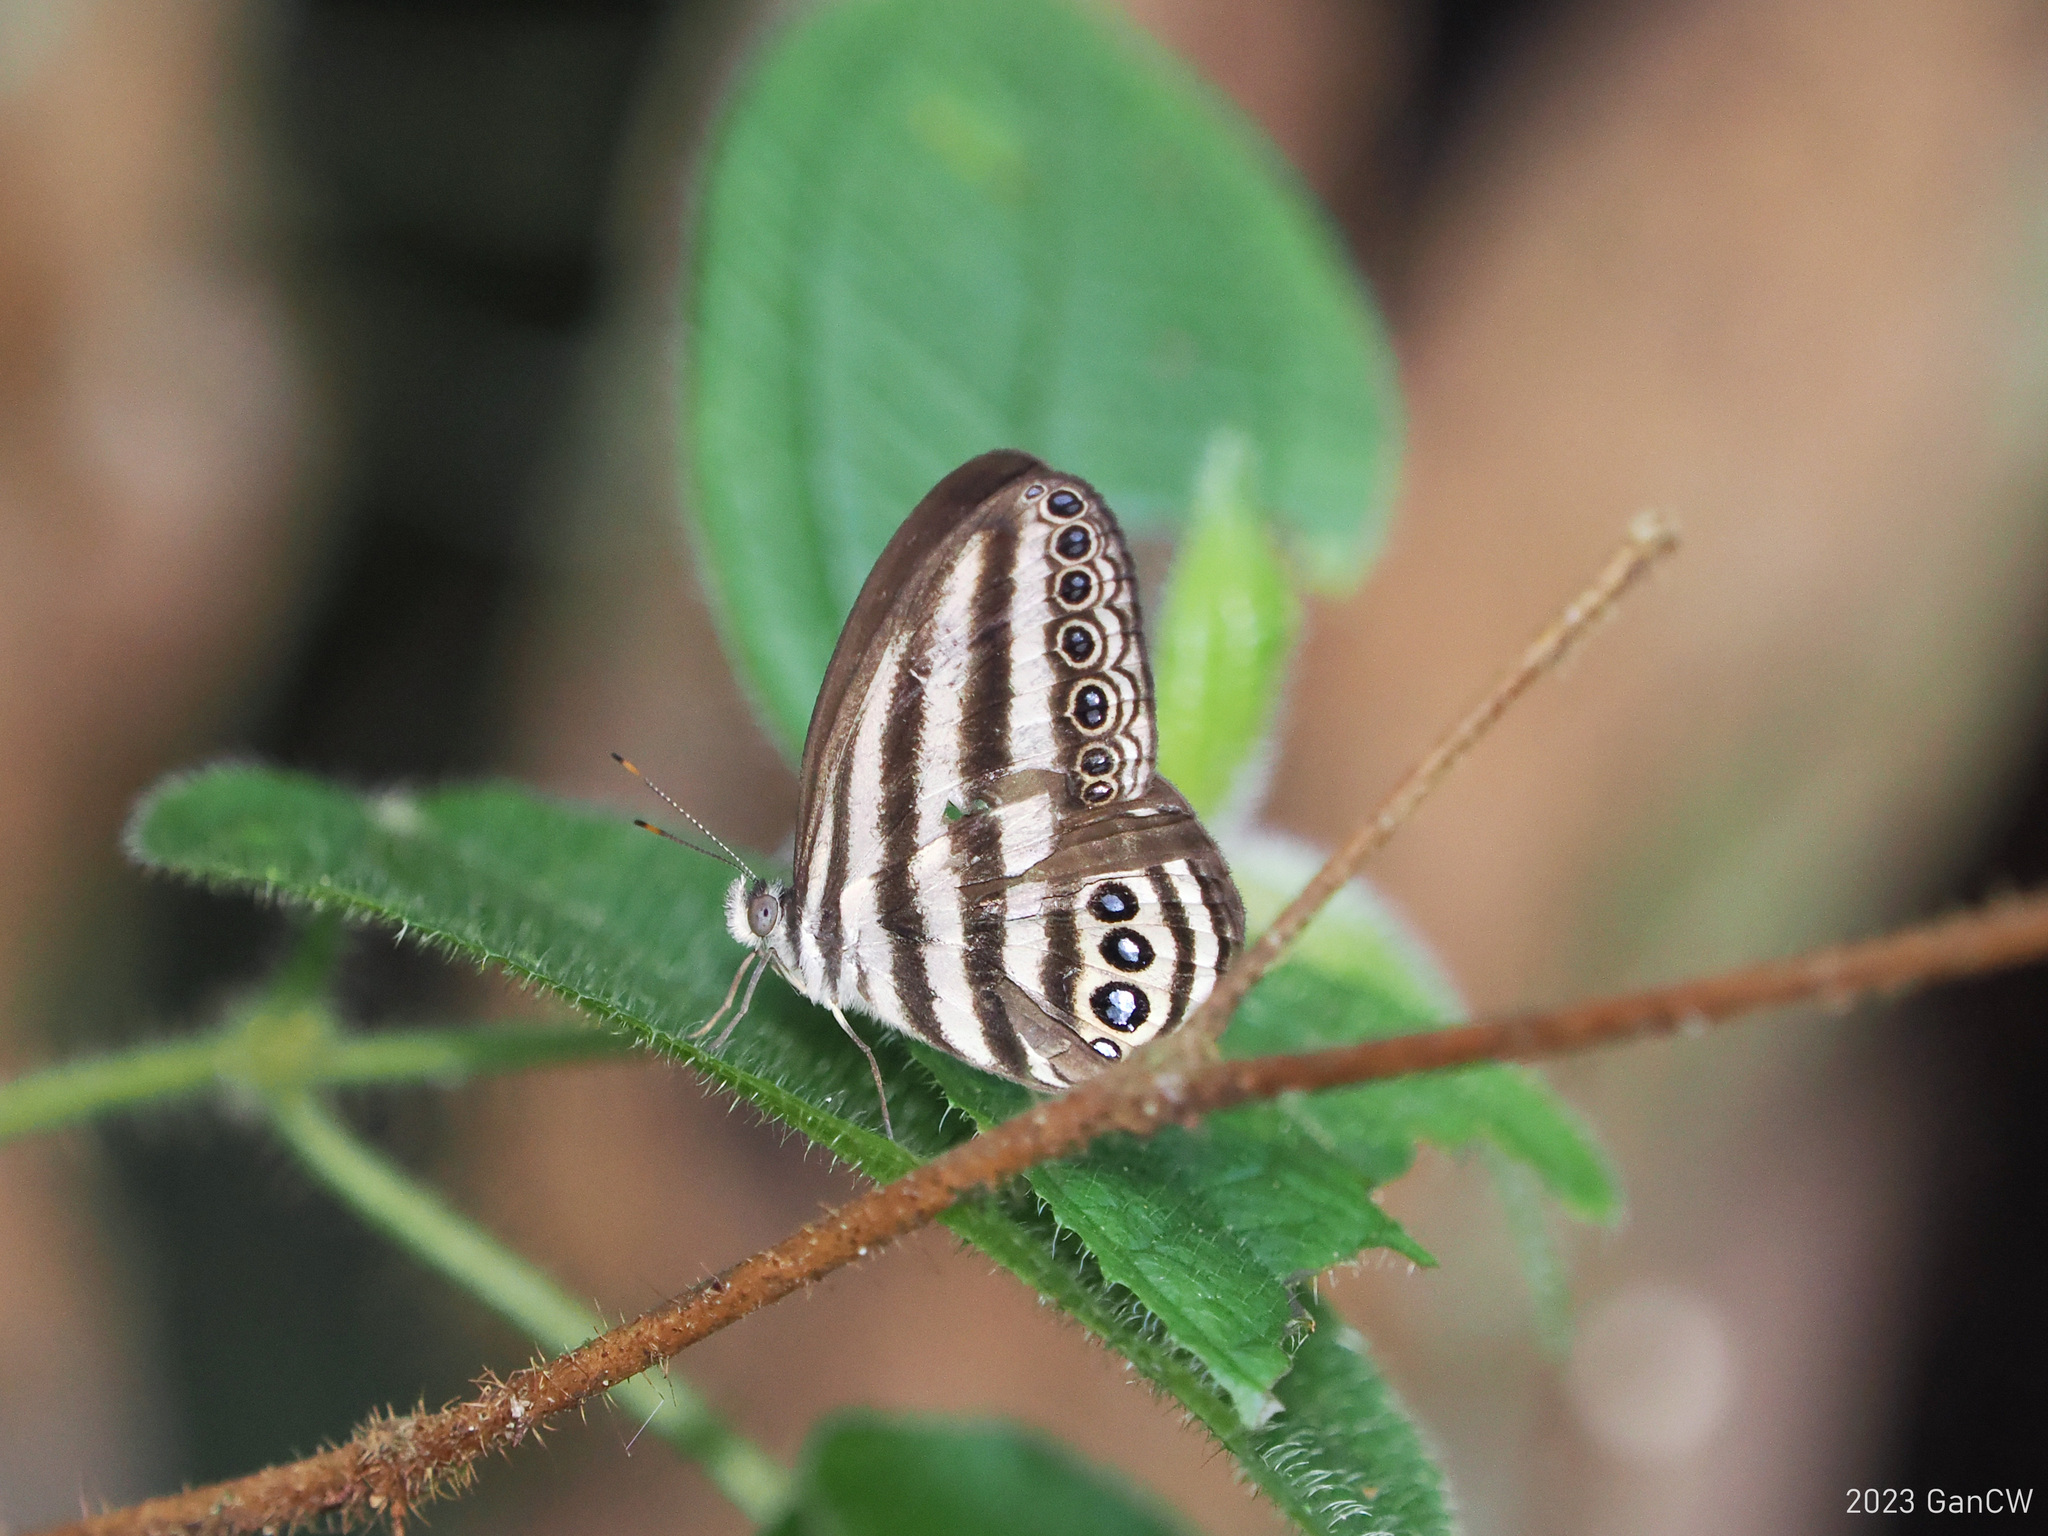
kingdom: Animalia
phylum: Arthropoda
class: Insecta
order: Lepidoptera
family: Nymphalidae
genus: Ragadia
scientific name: Ragadia makuta
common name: Striped ringlet
